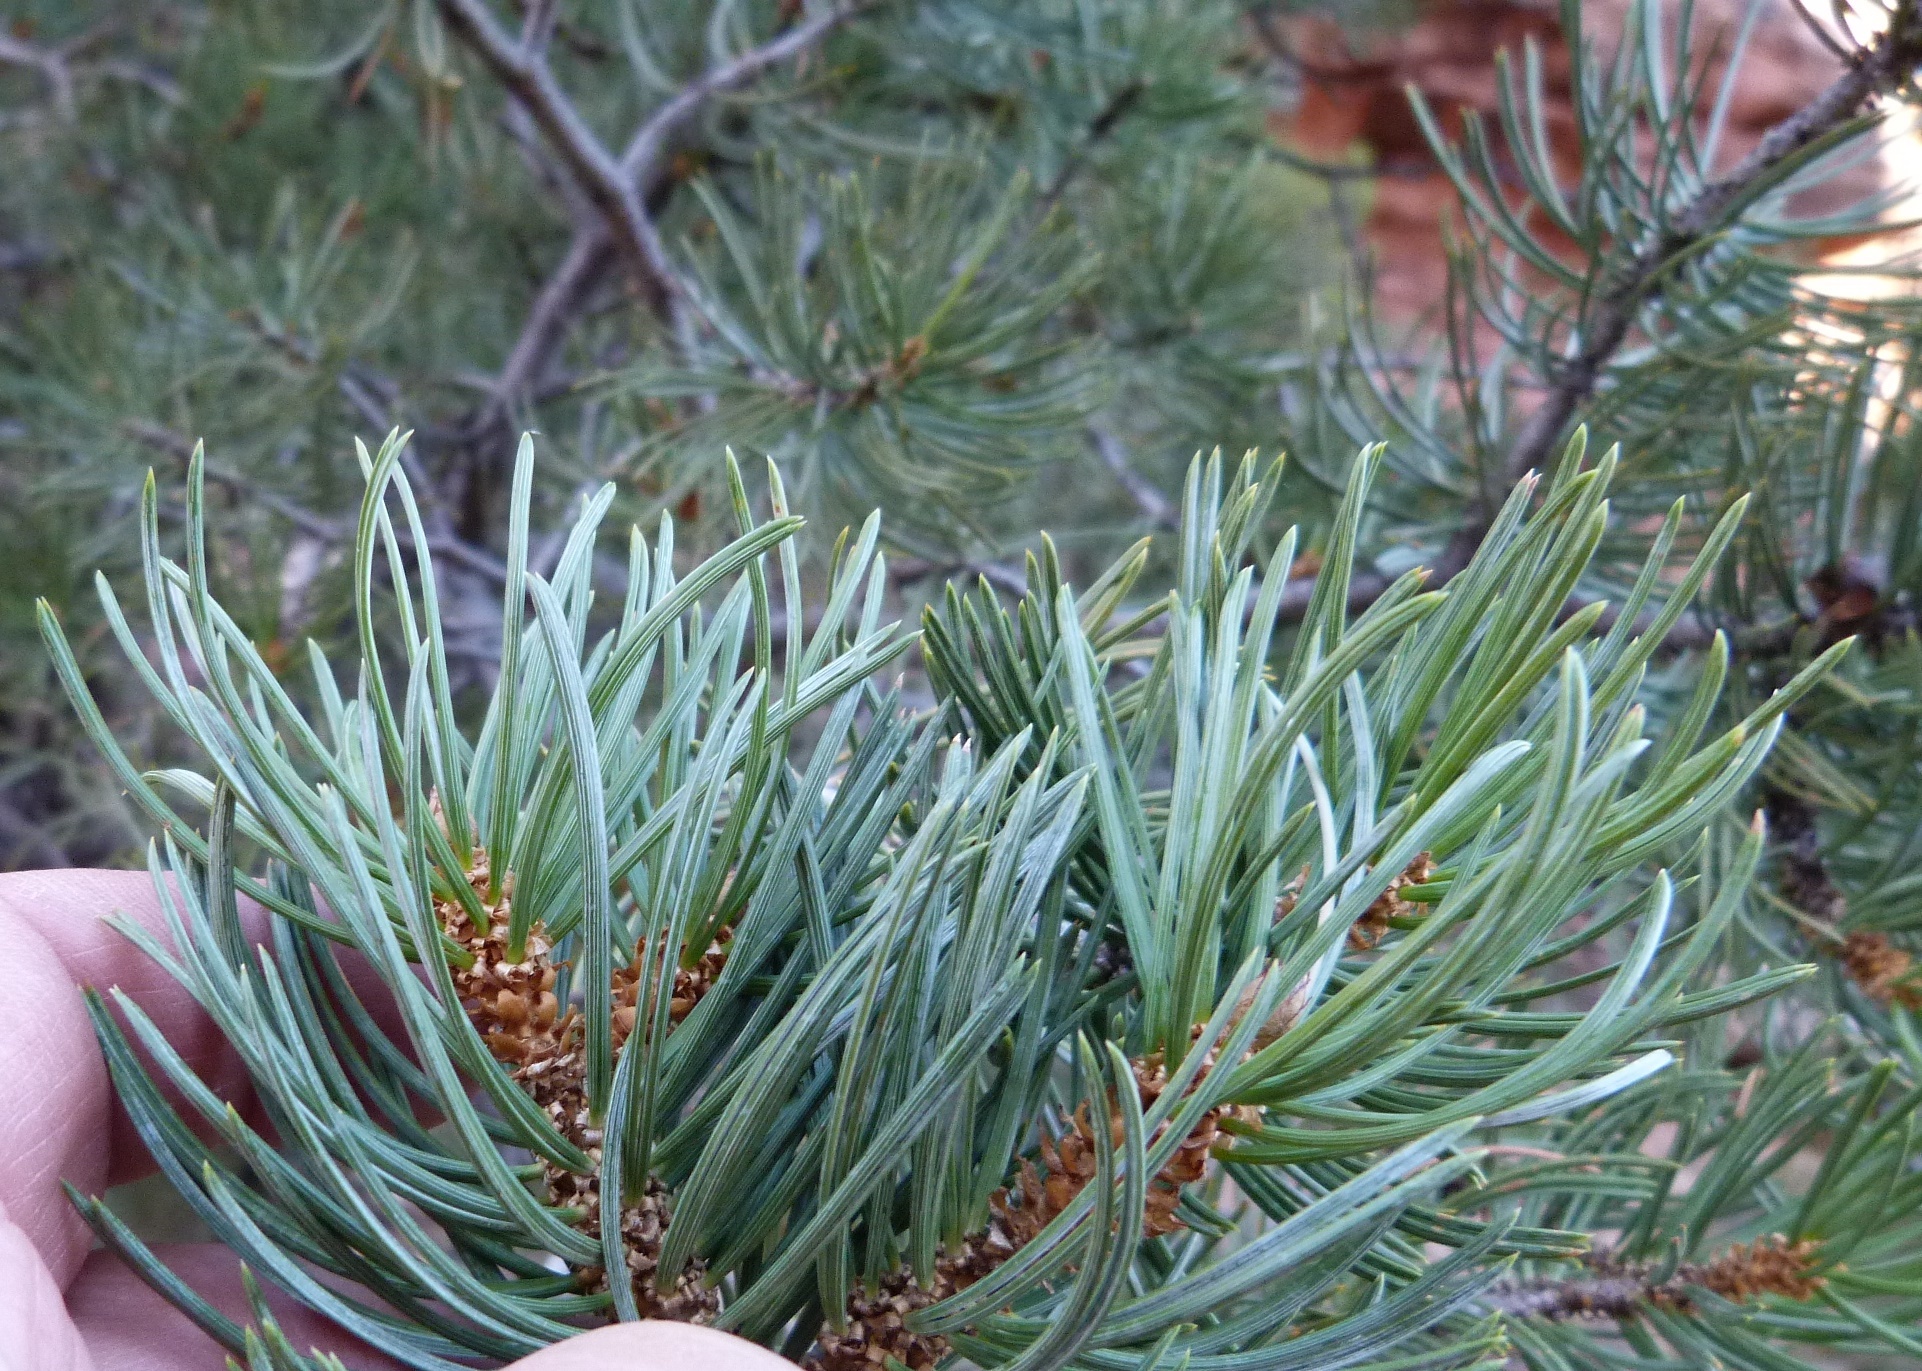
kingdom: Plantae
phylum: Tracheophyta
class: Pinopsida
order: Pinales
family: Pinaceae
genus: Pinus
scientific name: Pinus edulis
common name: Colorado pinyon
